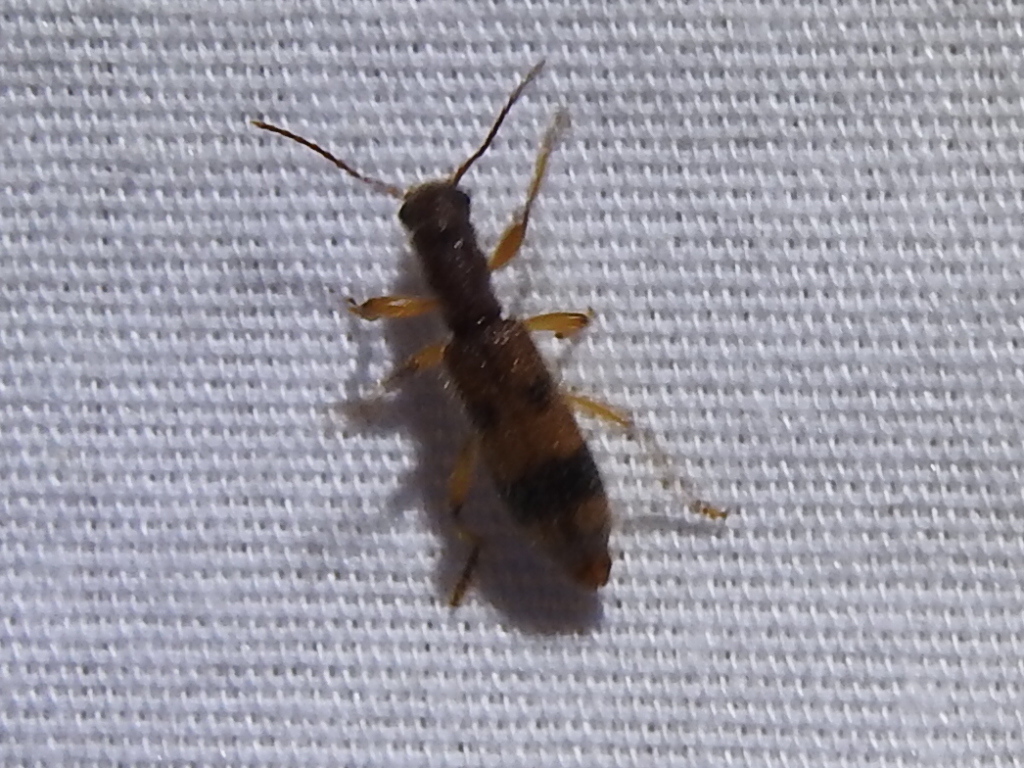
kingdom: Animalia
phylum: Arthropoda
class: Insecta
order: Coleoptera
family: Cleridae
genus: Cymatodera
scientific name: Cymatodera balteata
